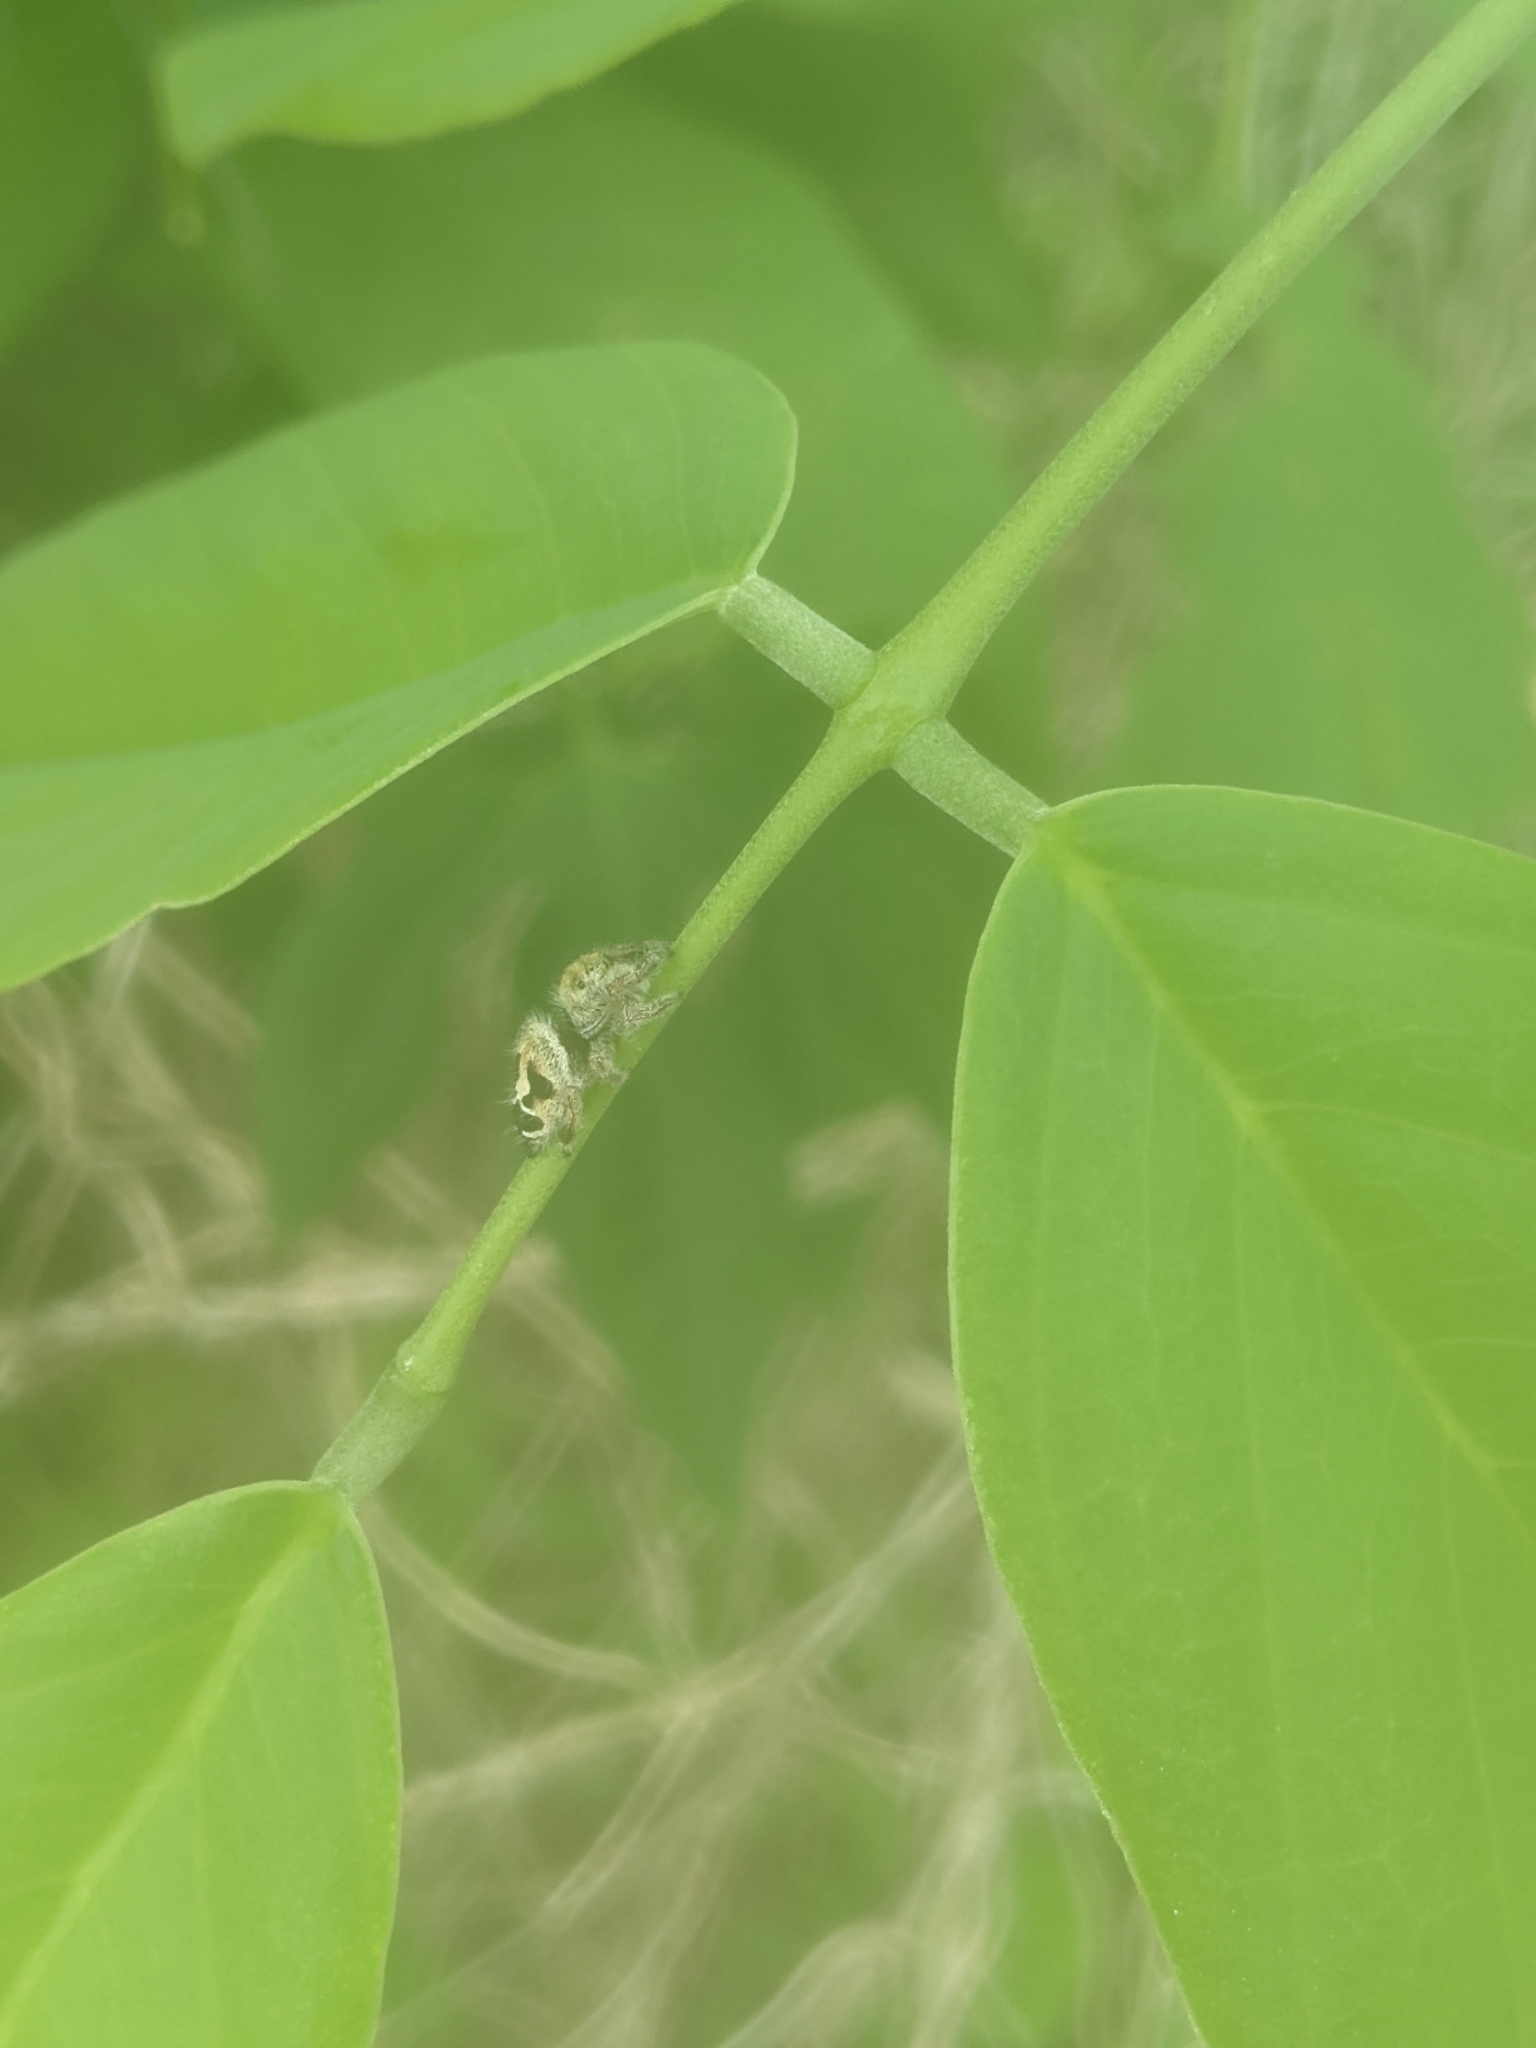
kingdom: Animalia
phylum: Arthropoda
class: Arachnida
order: Araneae
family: Salticidae
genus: Phidippus
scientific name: Phidippus maddisoni
